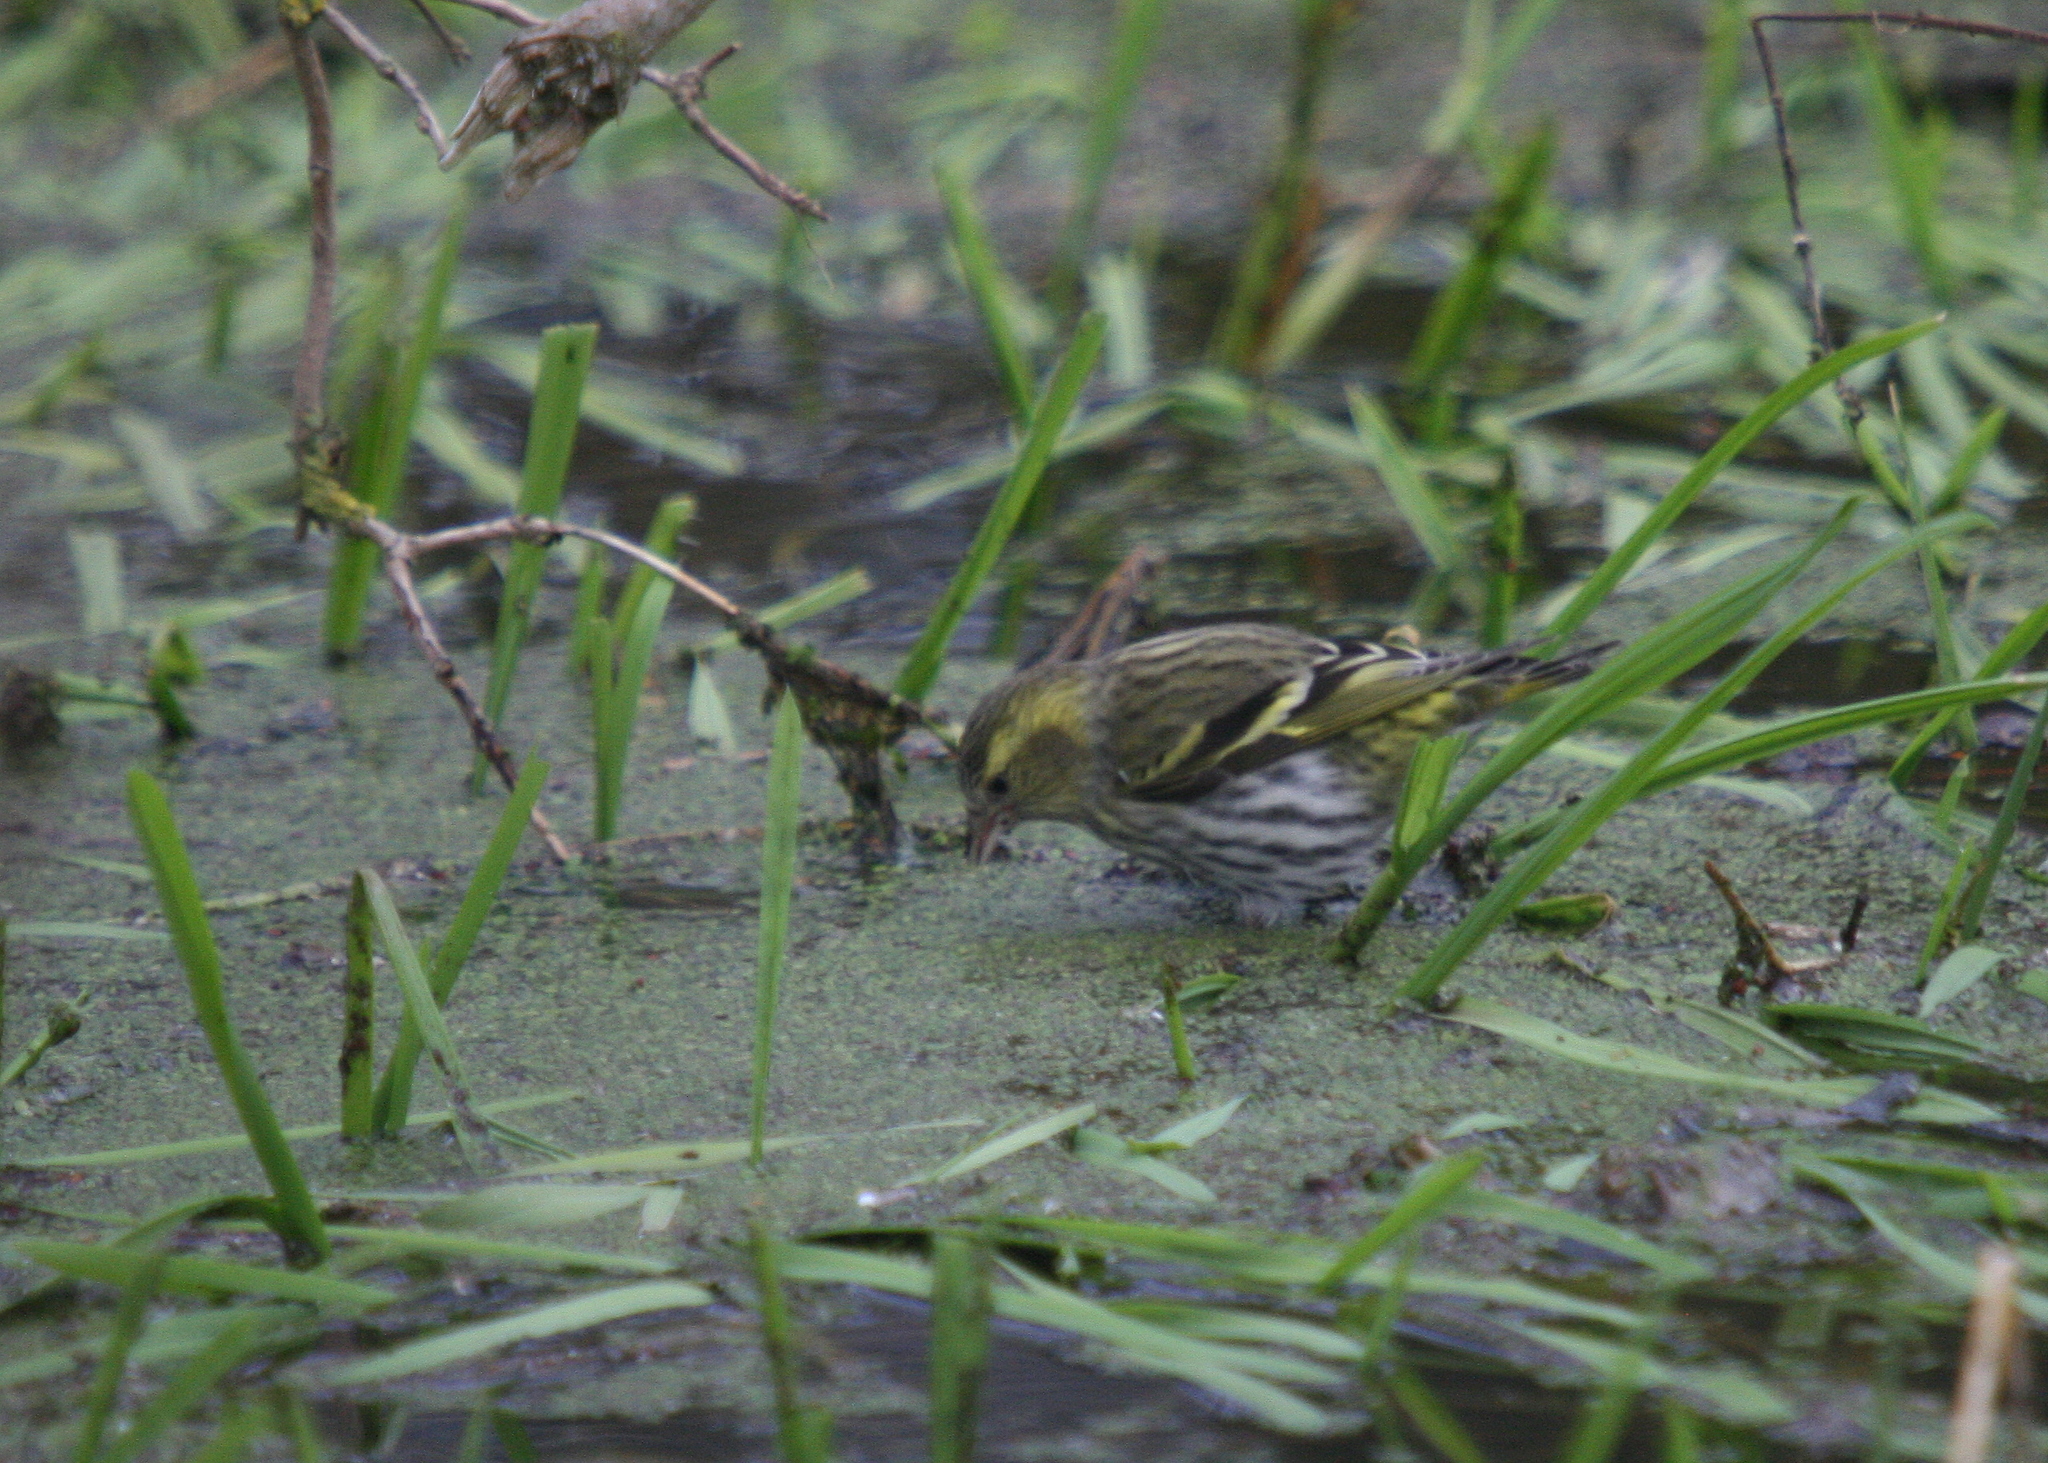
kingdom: Animalia
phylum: Chordata
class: Aves
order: Passeriformes
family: Fringillidae
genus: Spinus
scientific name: Spinus spinus
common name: Eurasian siskin
